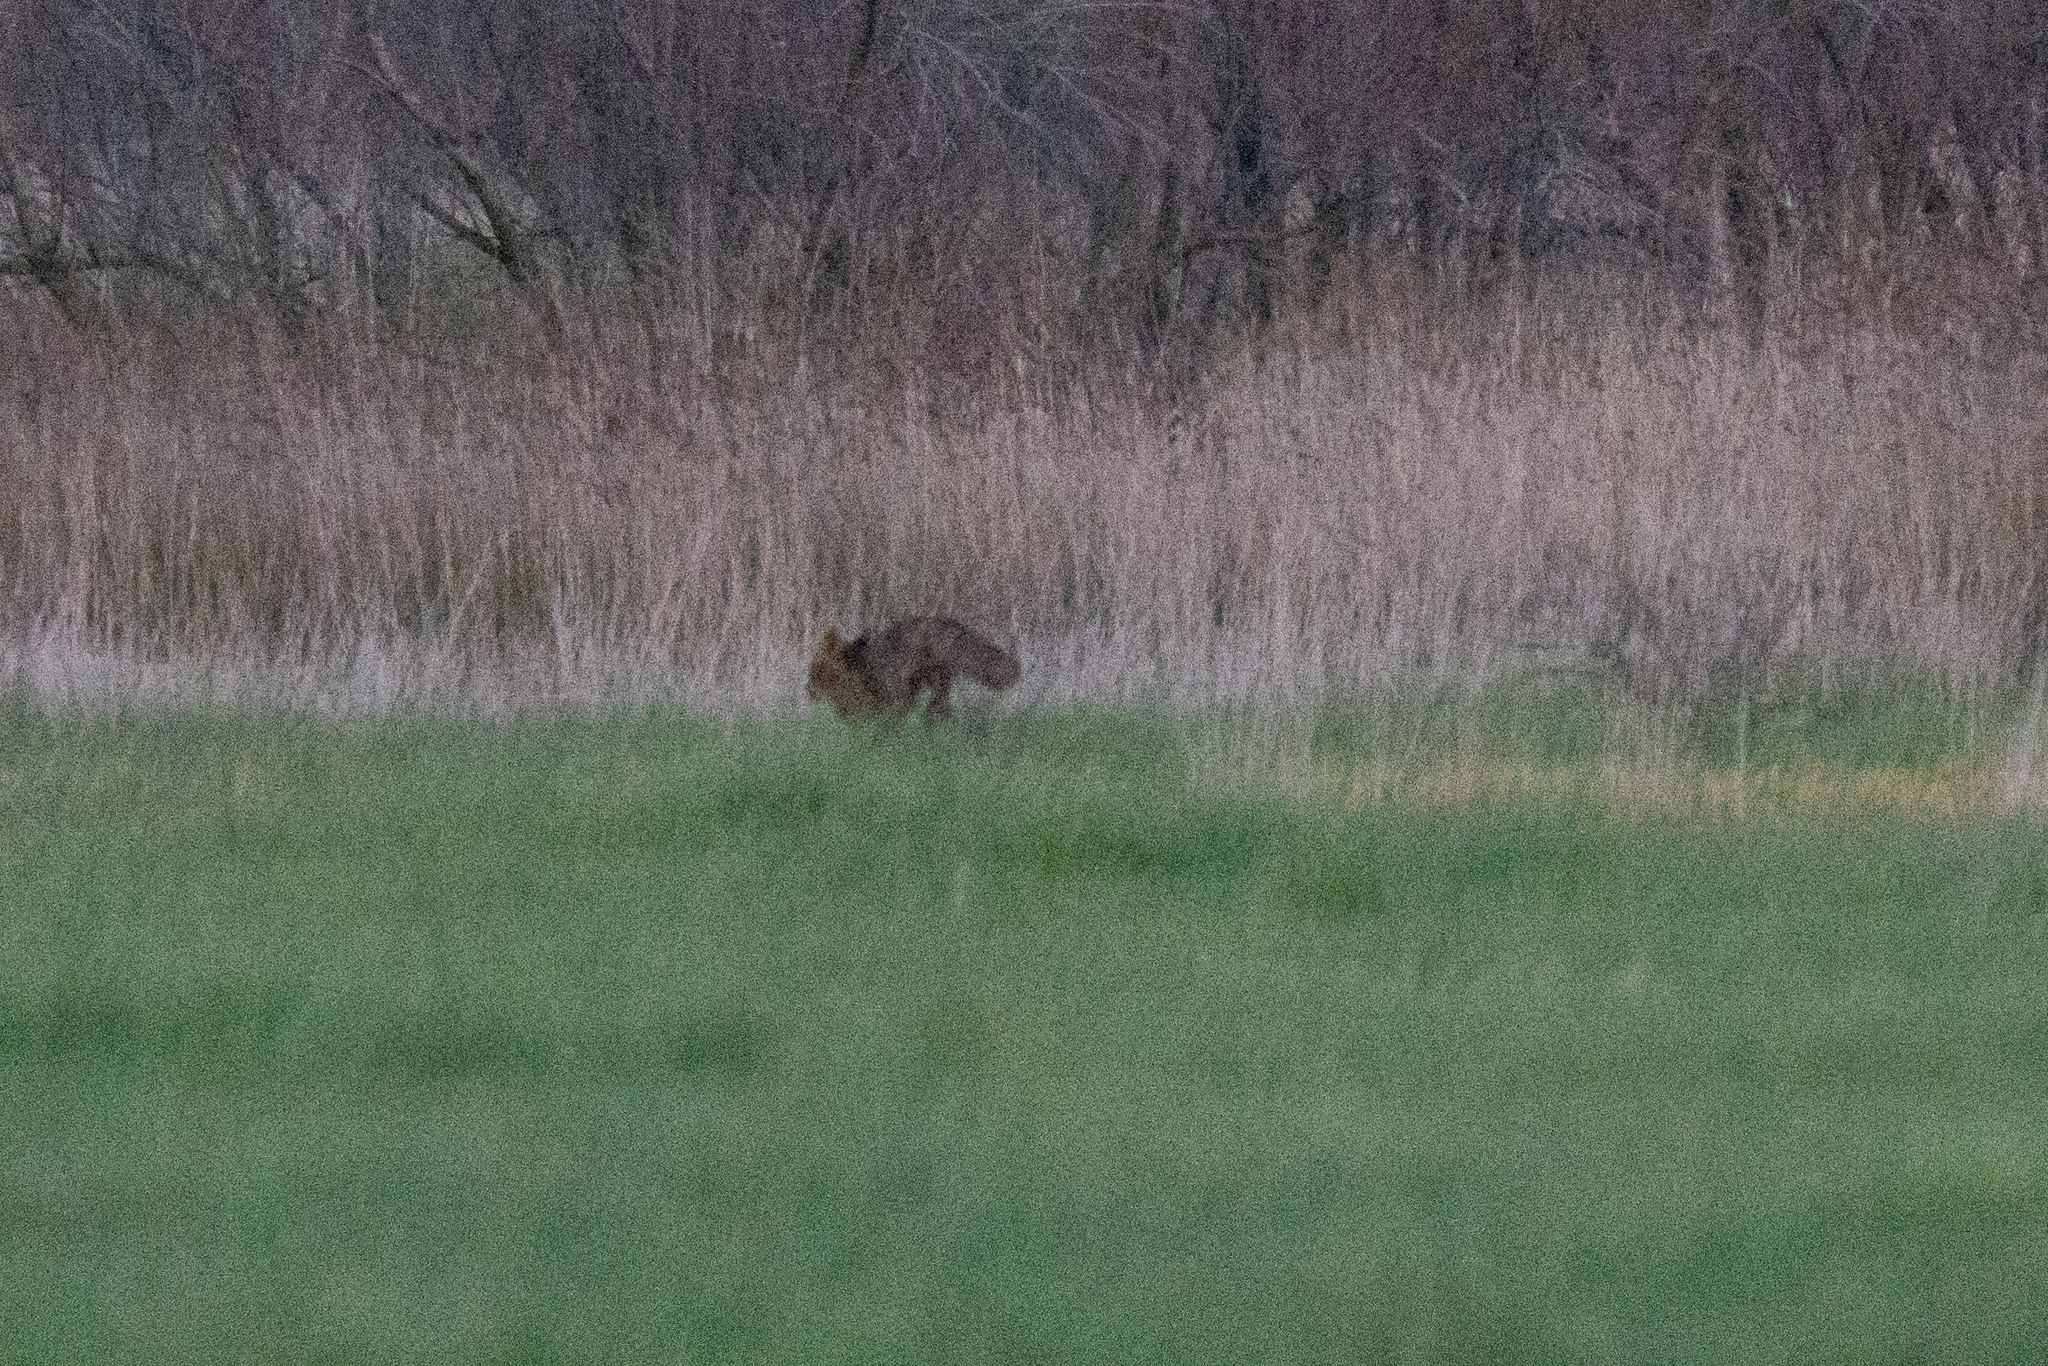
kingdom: Animalia
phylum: Chordata
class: Mammalia
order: Carnivora
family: Canidae
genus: Vulpes
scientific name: Vulpes vulpes
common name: Red fox
